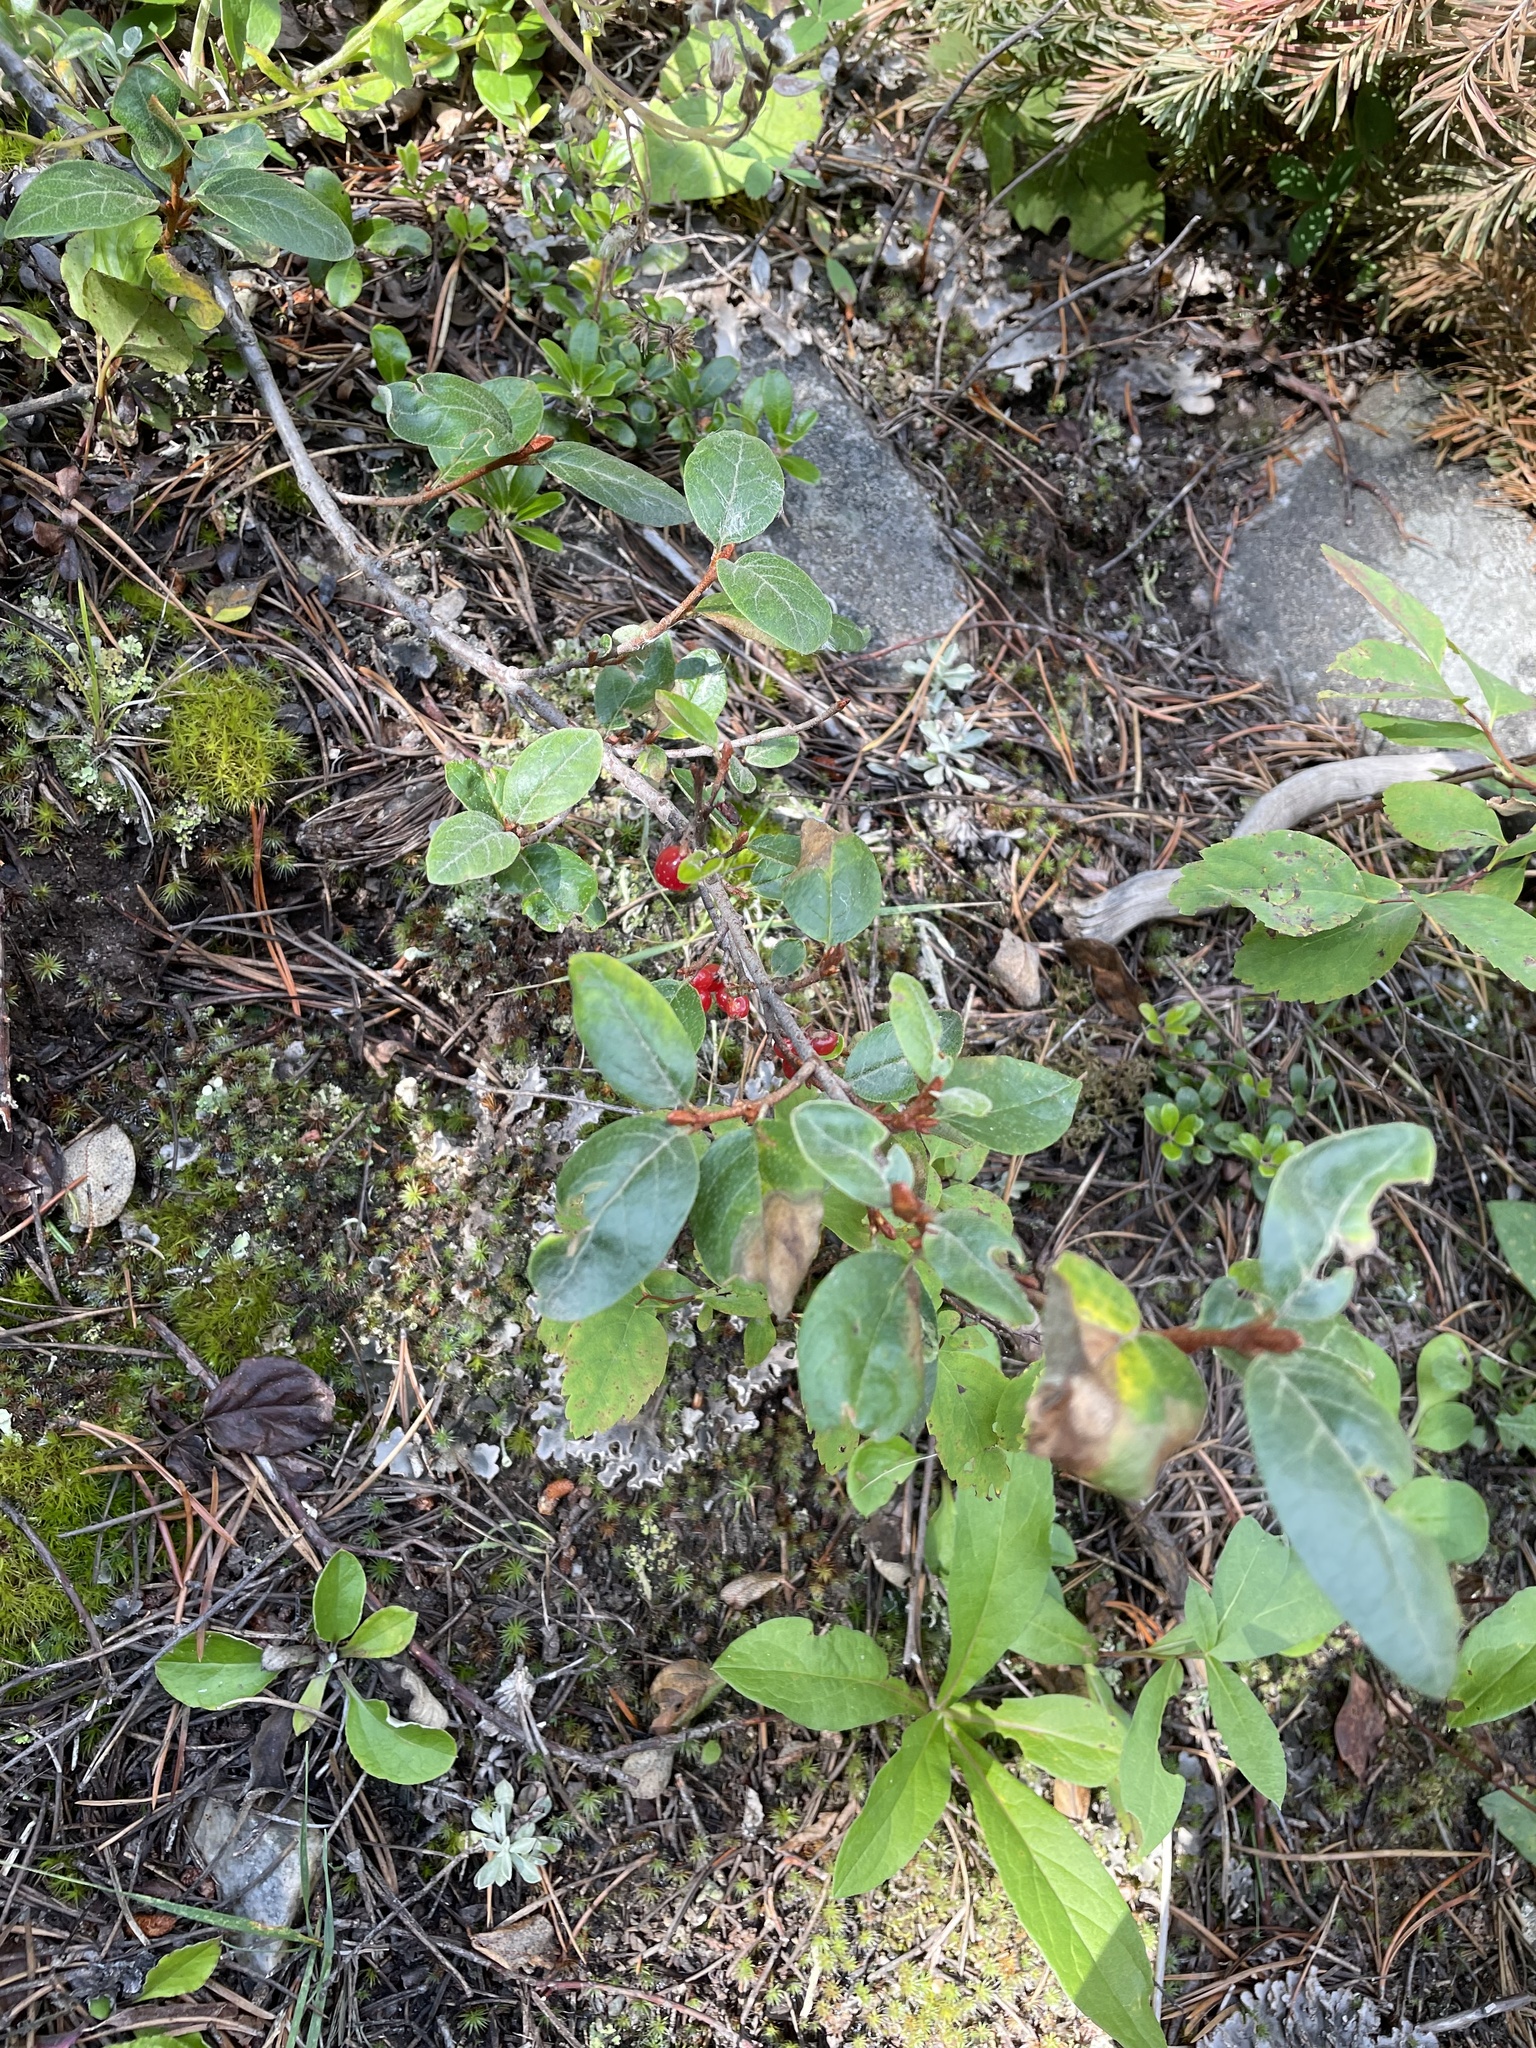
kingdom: Plantae
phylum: Tracheophyta
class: Magnoliopsida
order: Rosales
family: Elaeagnaceae
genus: Shepherdia
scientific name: Shepherdia canadensis
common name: Soapberry
